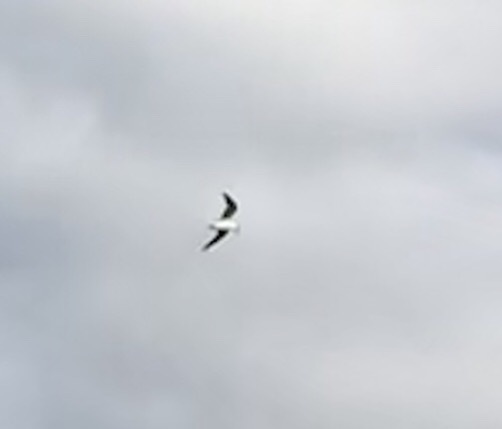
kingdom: Animalia
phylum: Chordata
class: Aves
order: Charadriiformes
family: Laridae
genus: Hydroprogne
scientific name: Hydroprogne caspia
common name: Caspian tern
